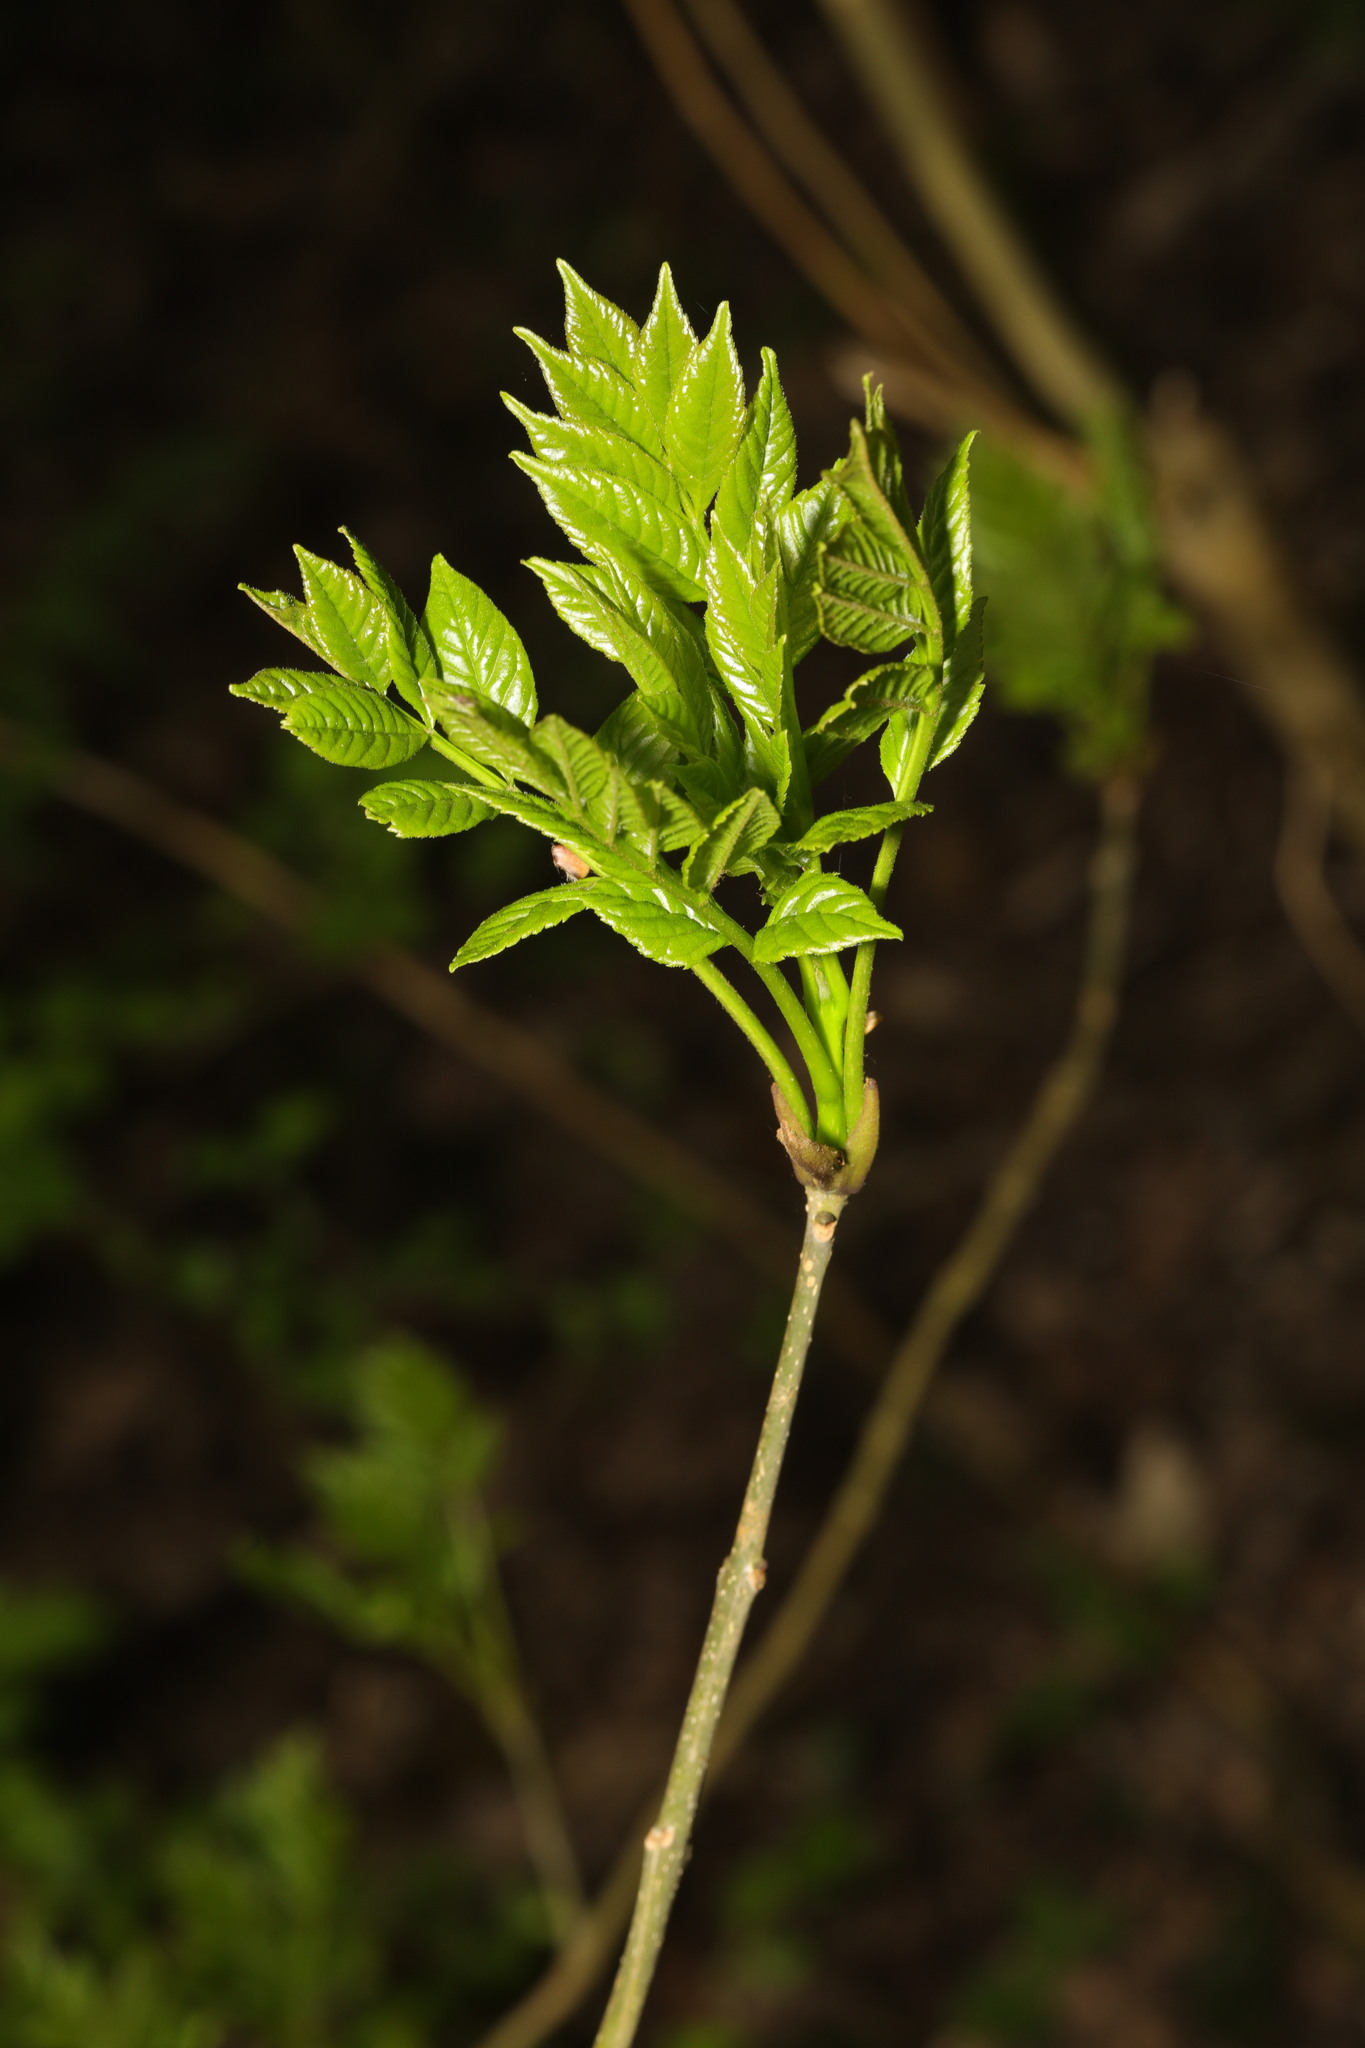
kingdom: Plantae
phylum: Tracheophyta
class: Magnoliopsida
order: Lamiales
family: Oleaceae
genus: Fraxinus
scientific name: Fraxinus excelsior
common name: European ash
